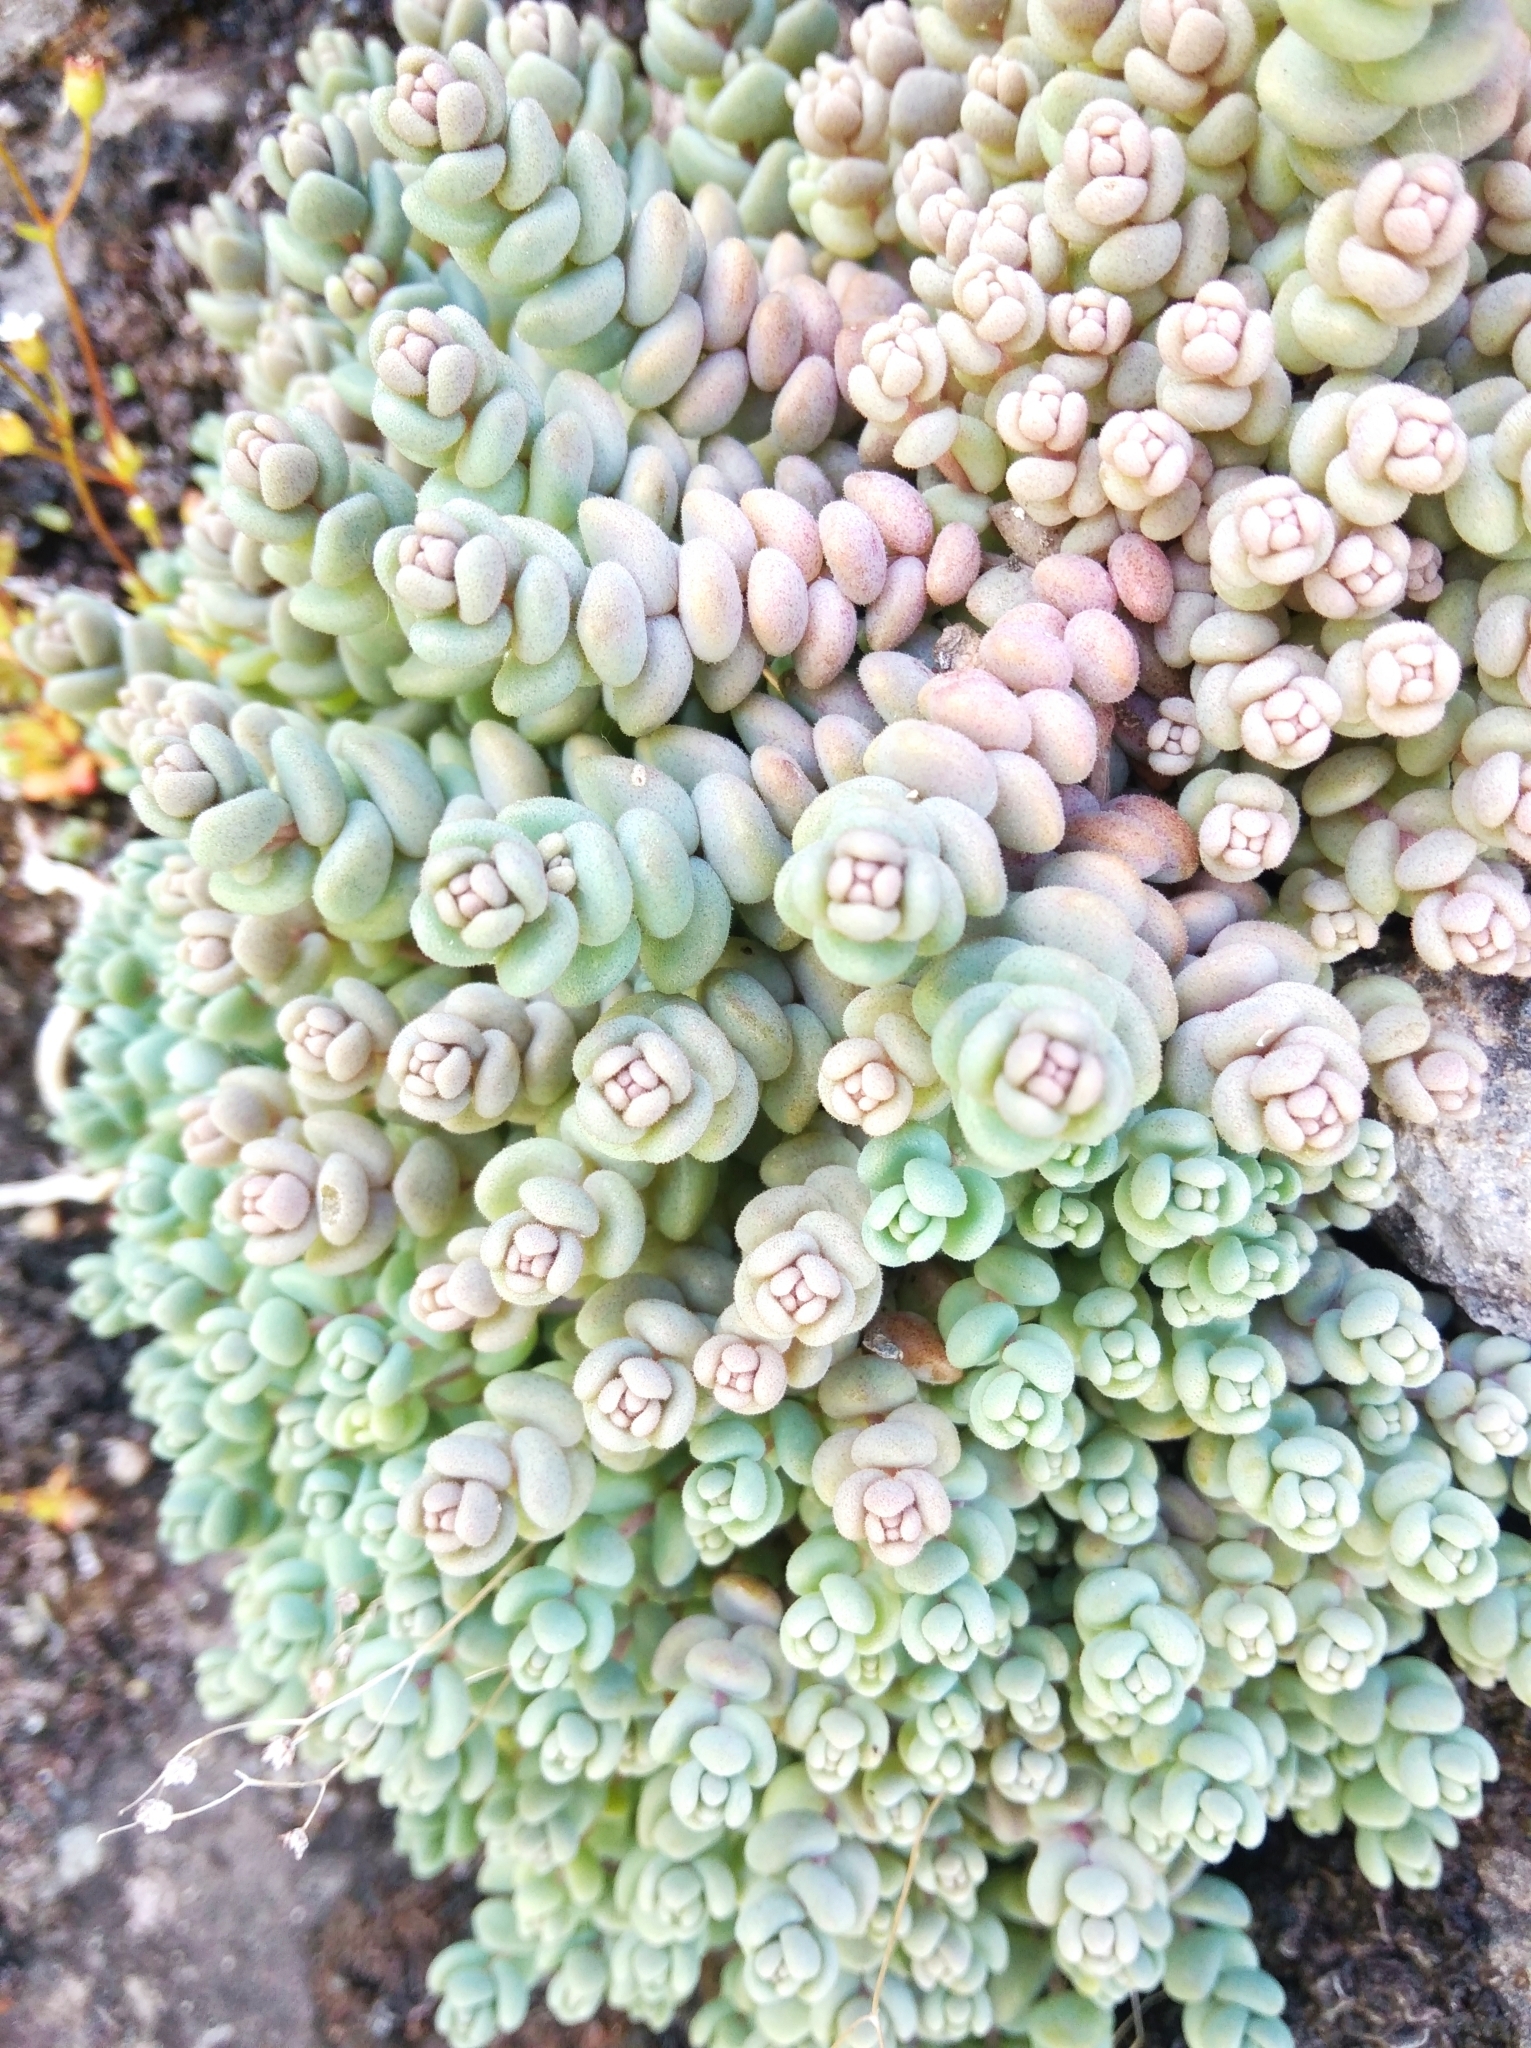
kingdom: Plantae
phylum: Tracheophyta
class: Magnoliopsida
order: Saxifragales
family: Crassulaceae
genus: Sedum
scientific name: Sedum dasyphyllum
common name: Thick-leaf stonecrop
